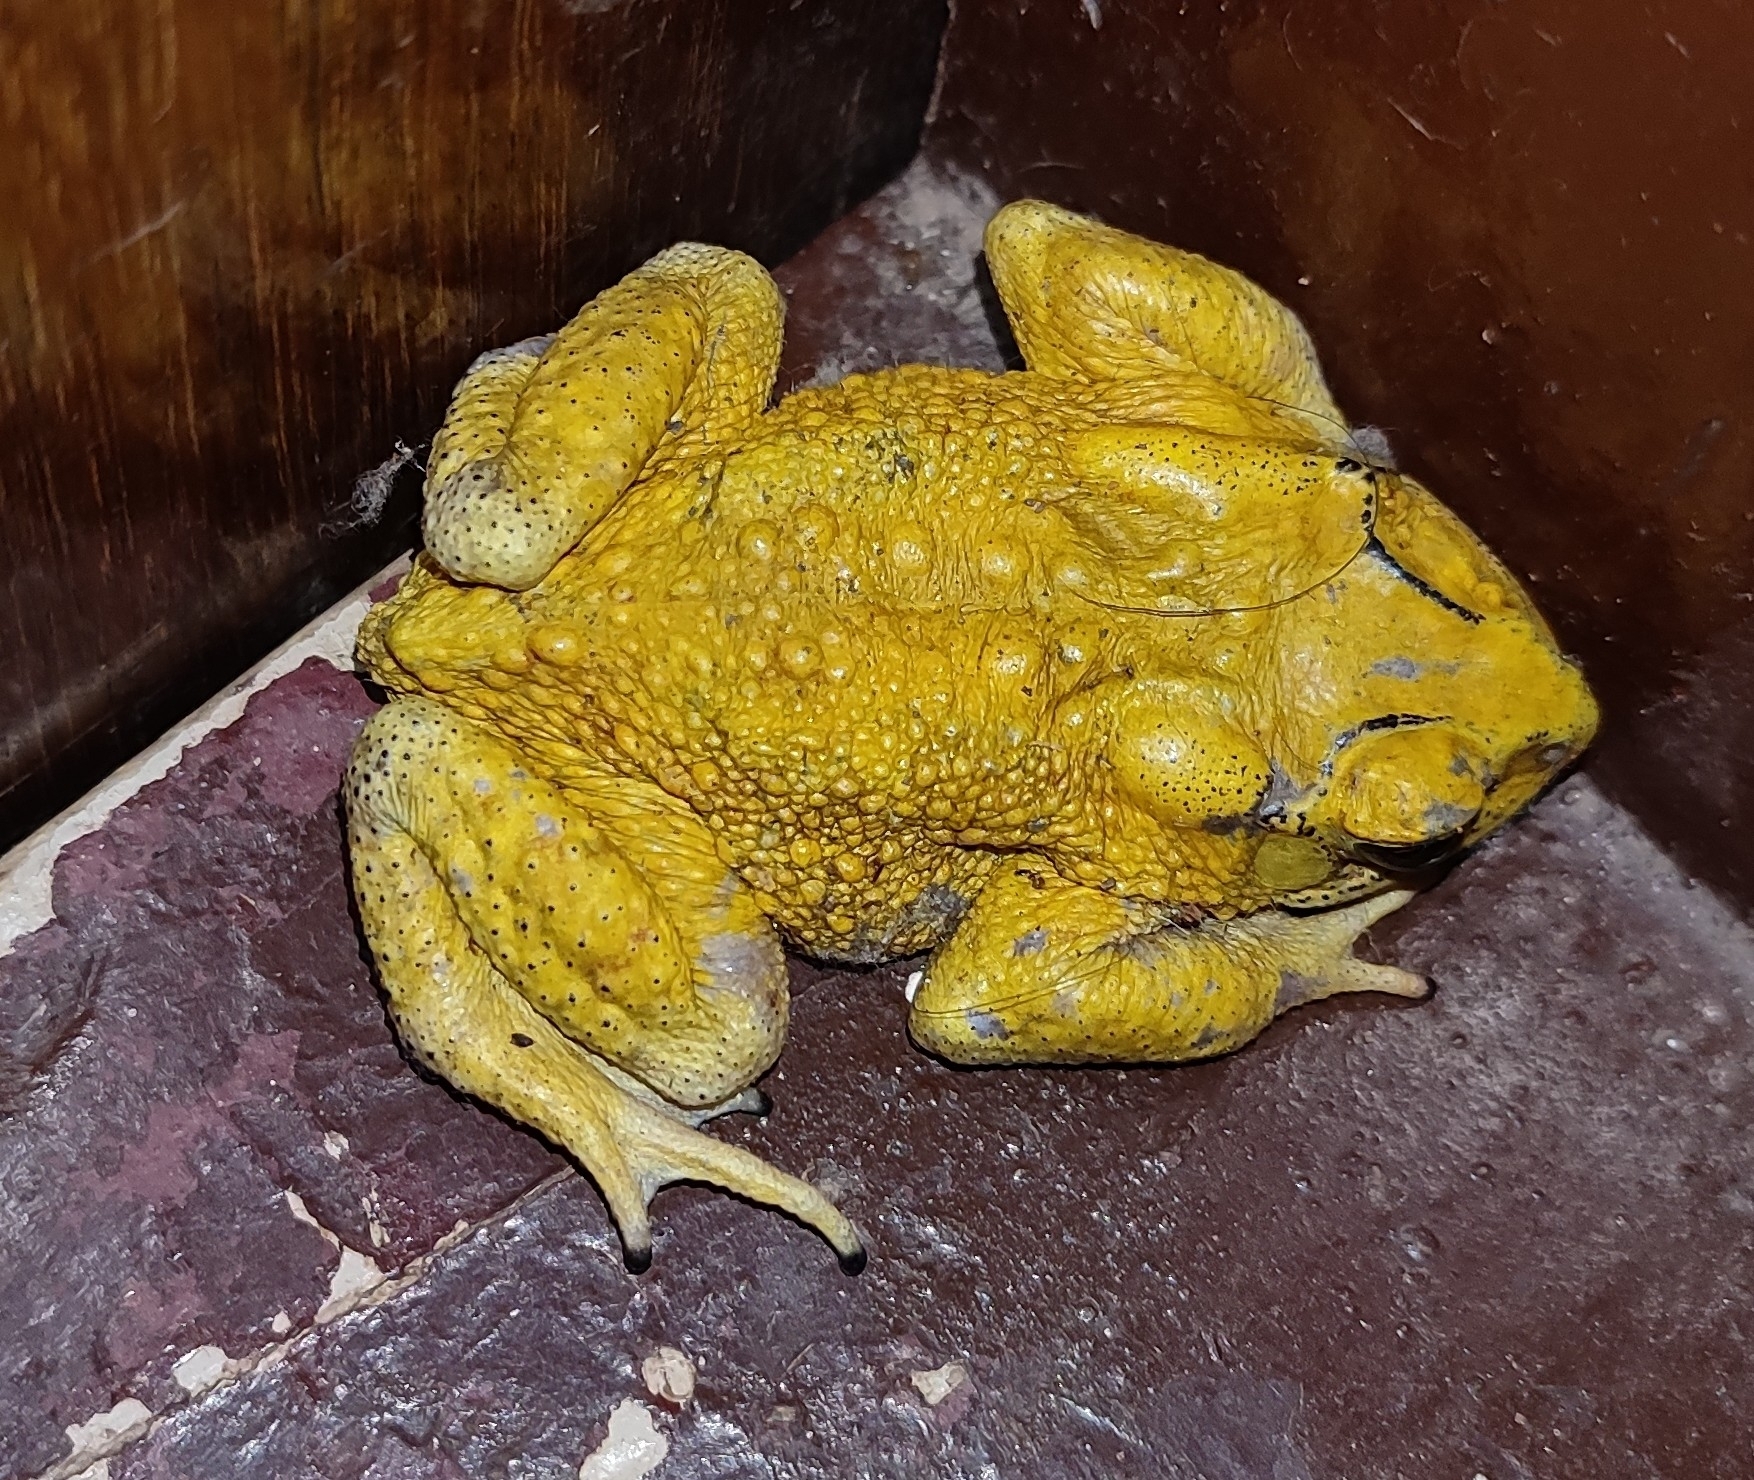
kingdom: Animalia
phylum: Chordata
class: Amphibia
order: Anura
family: Bufonidae
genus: Duttaphrynus
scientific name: Duttaphrynus melanostictus
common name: Common sunda toad
